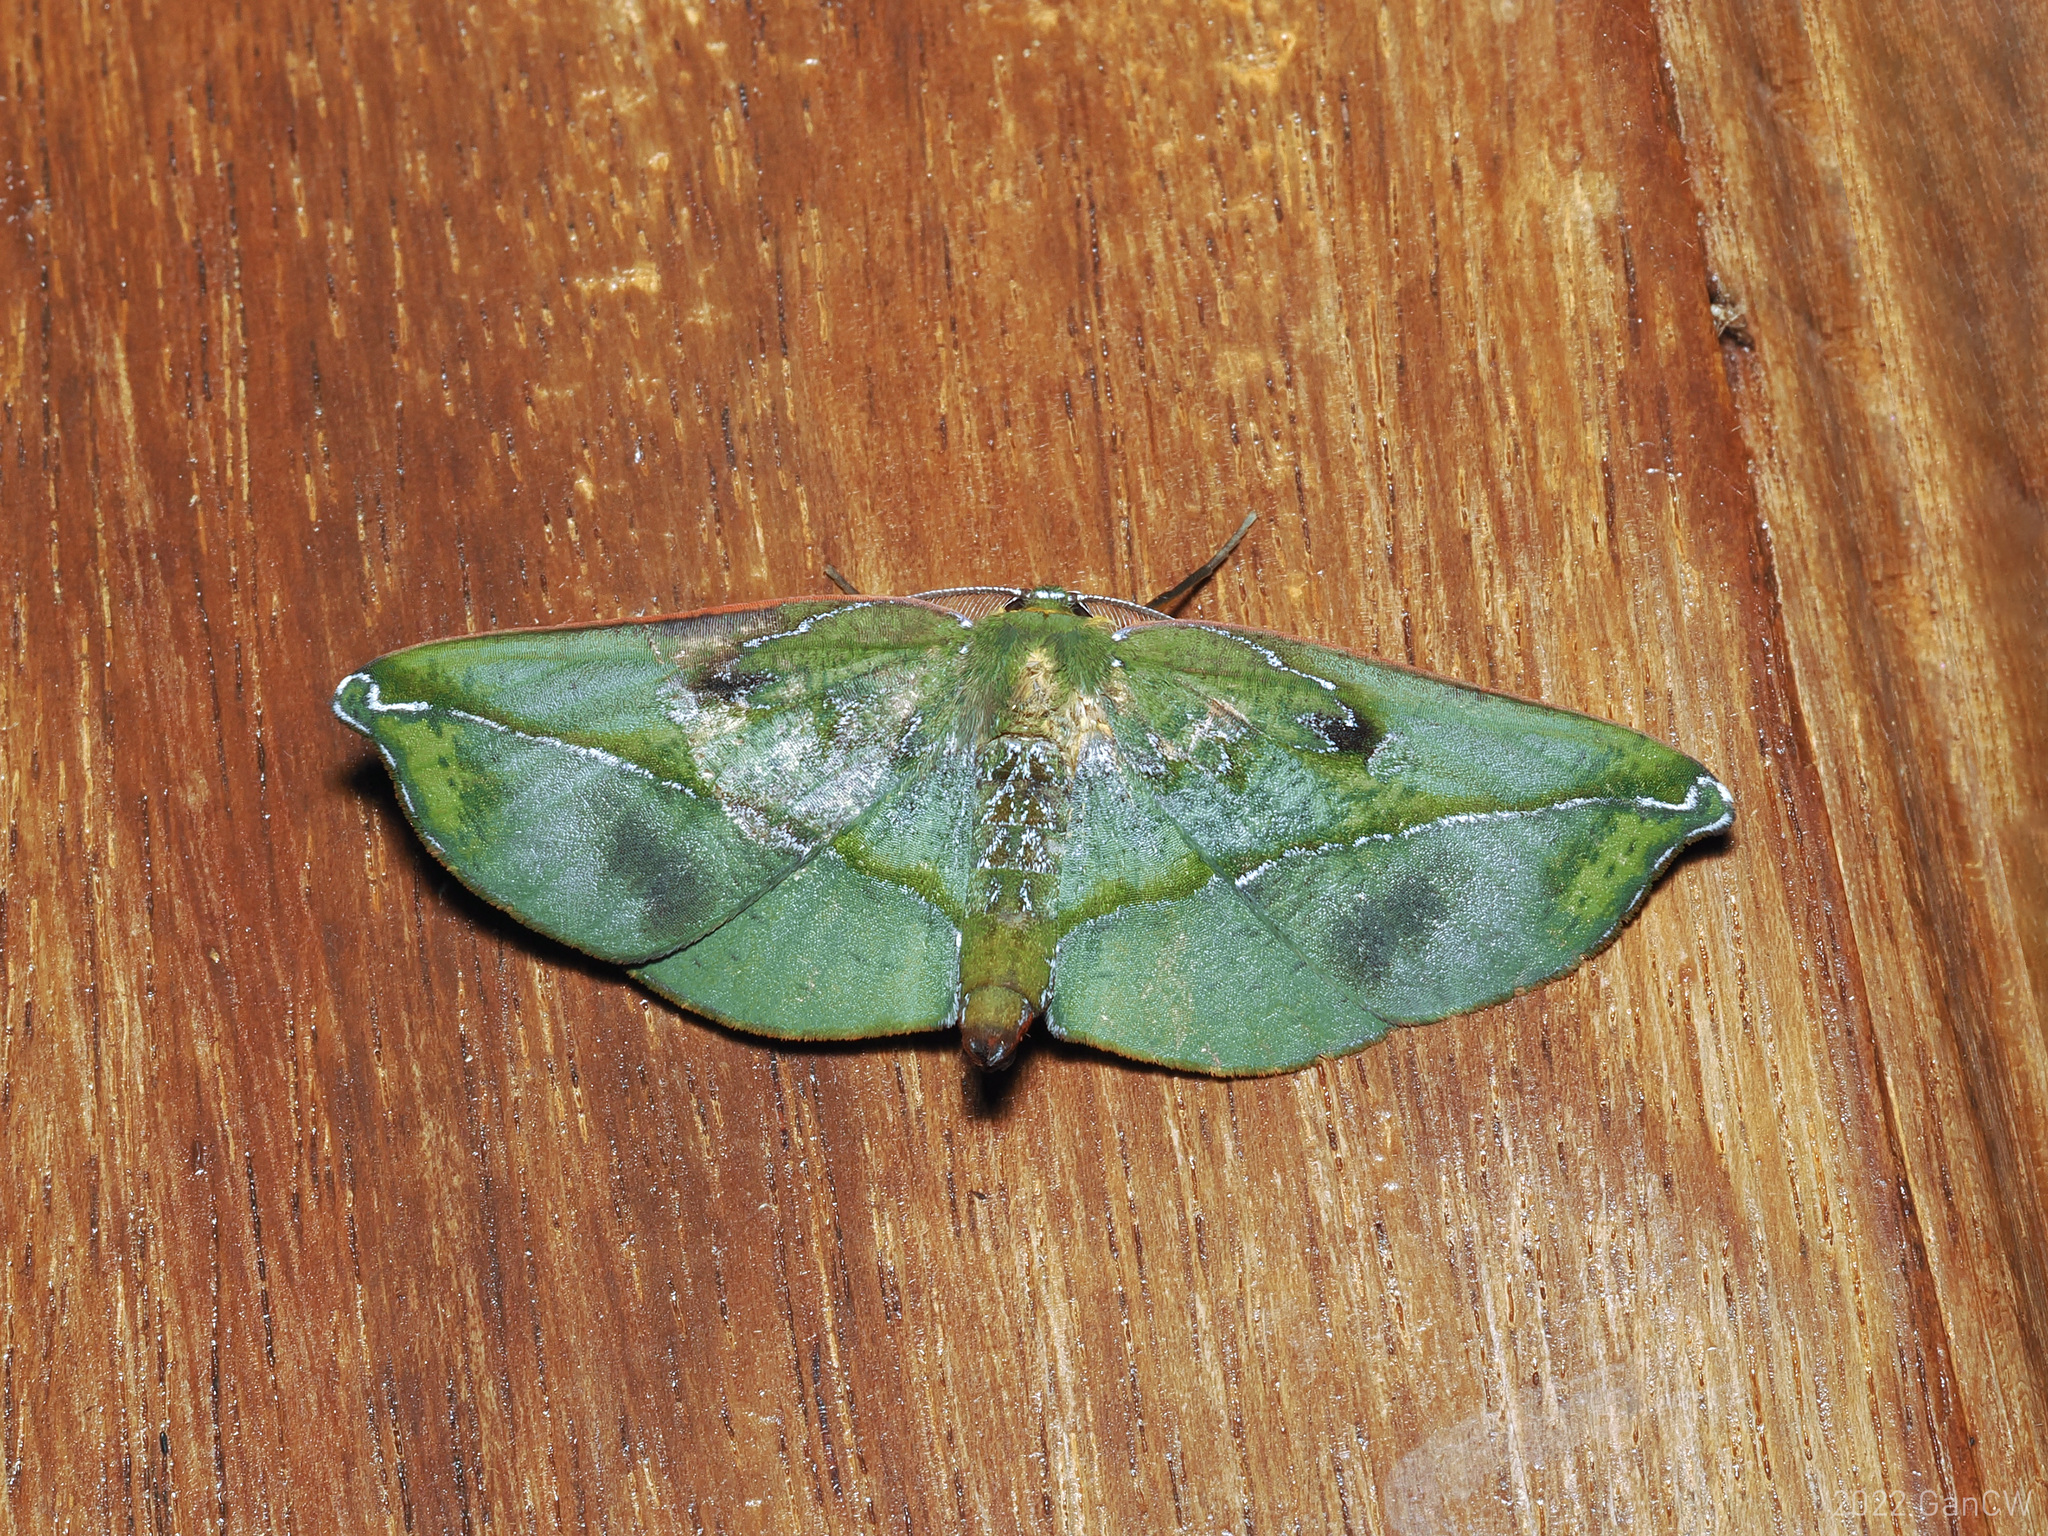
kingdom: Animalia
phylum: Arthropoda
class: Insecta
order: Lepidoptera
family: Geometridae
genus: Omiza
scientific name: Omiza lycoraria
